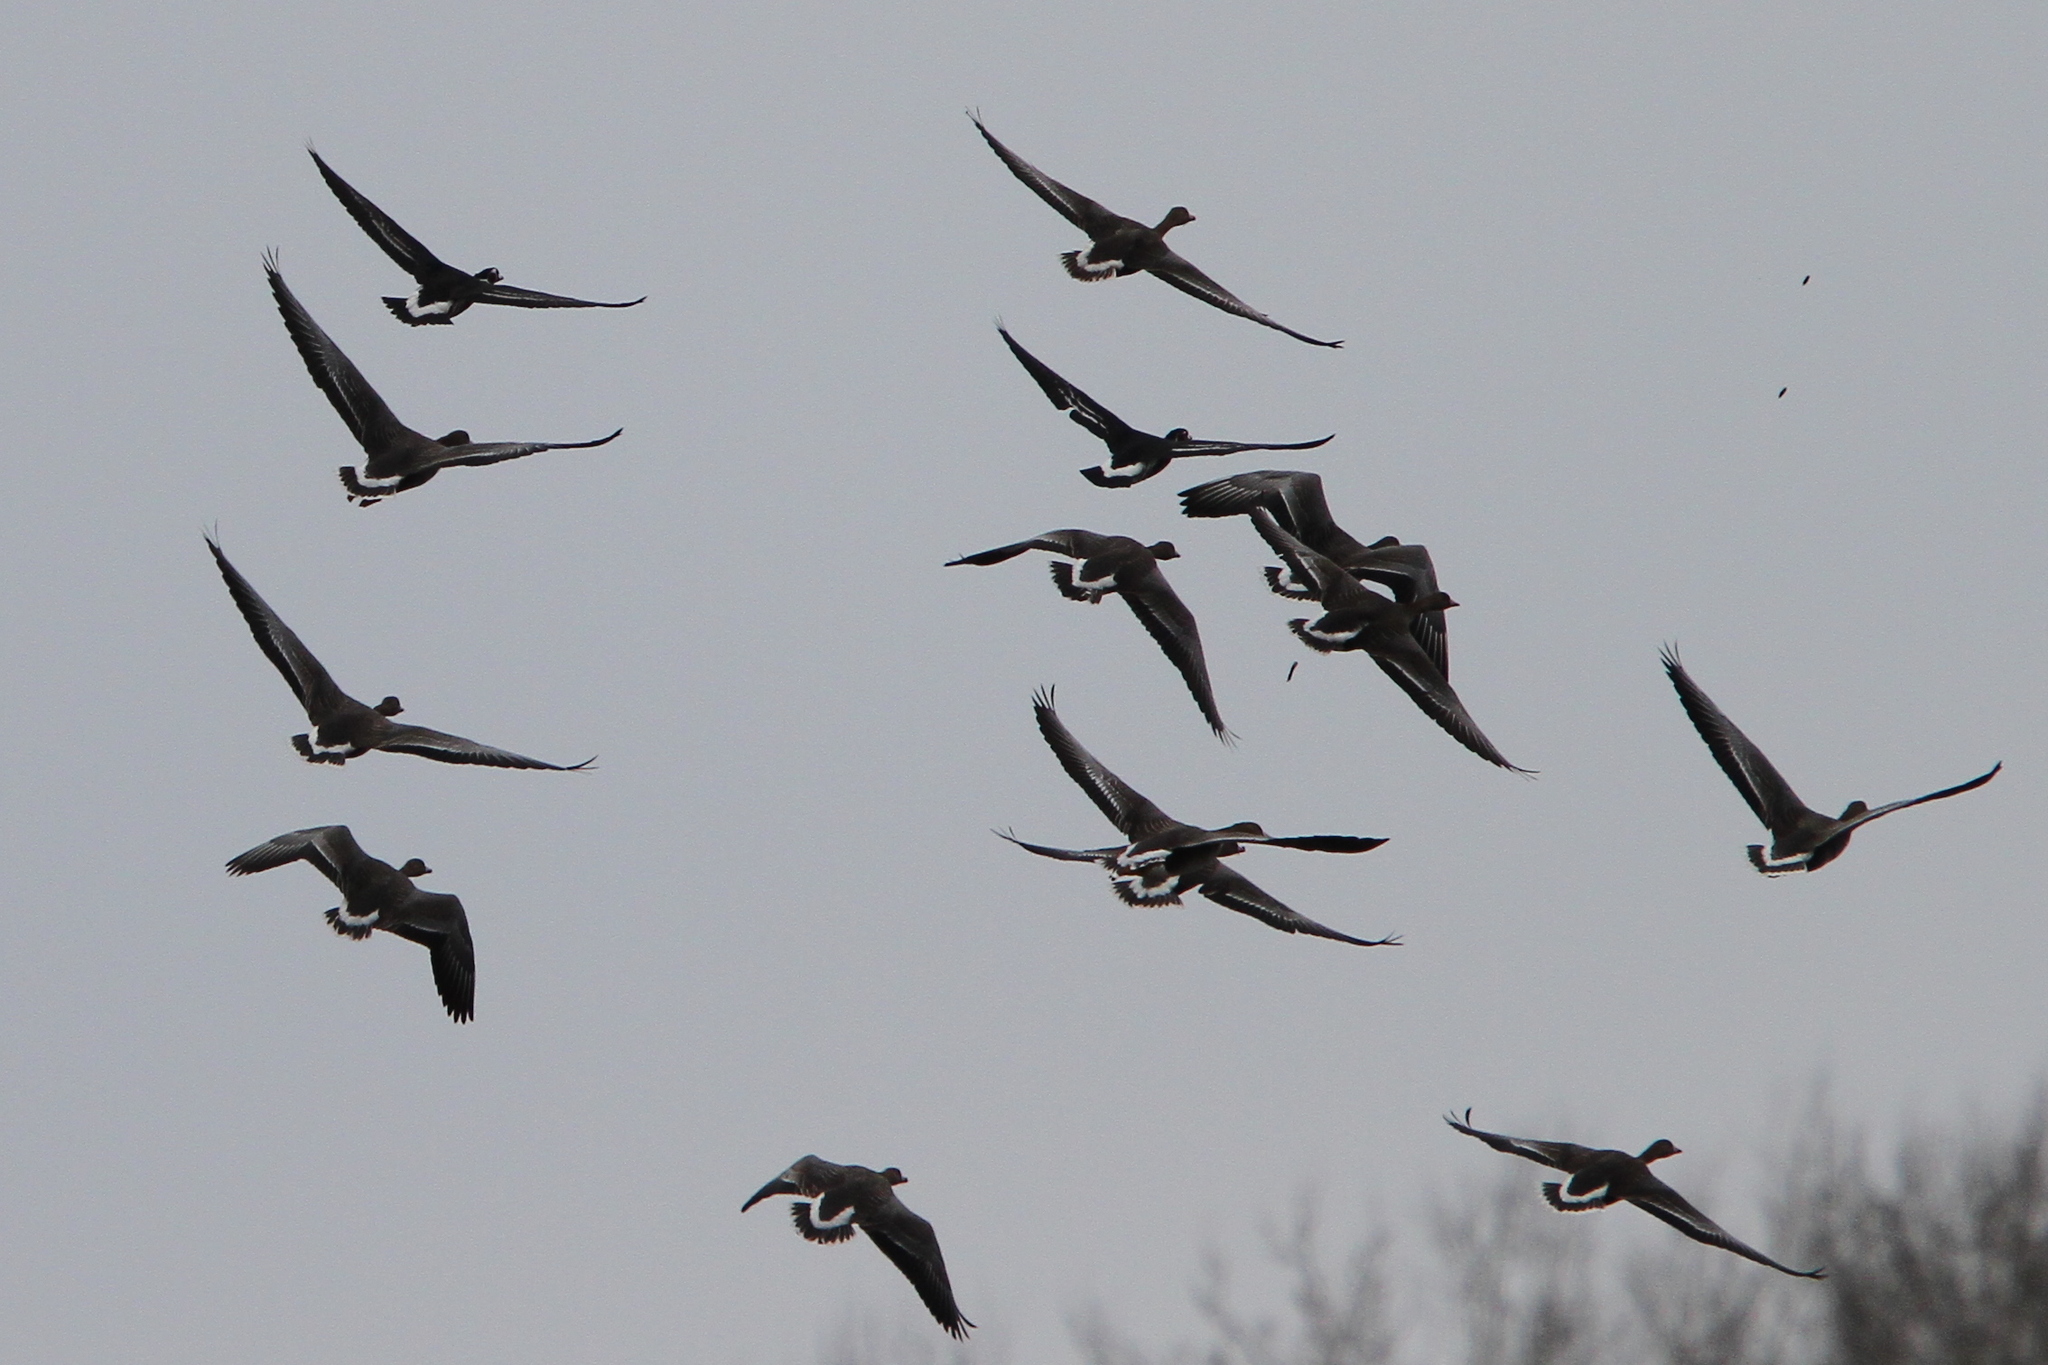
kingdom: Animalia
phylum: Chordata
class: Aves
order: Anseriformes
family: Anatidae
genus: Branta
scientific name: Branta ruficollis
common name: Red-breasted goose
